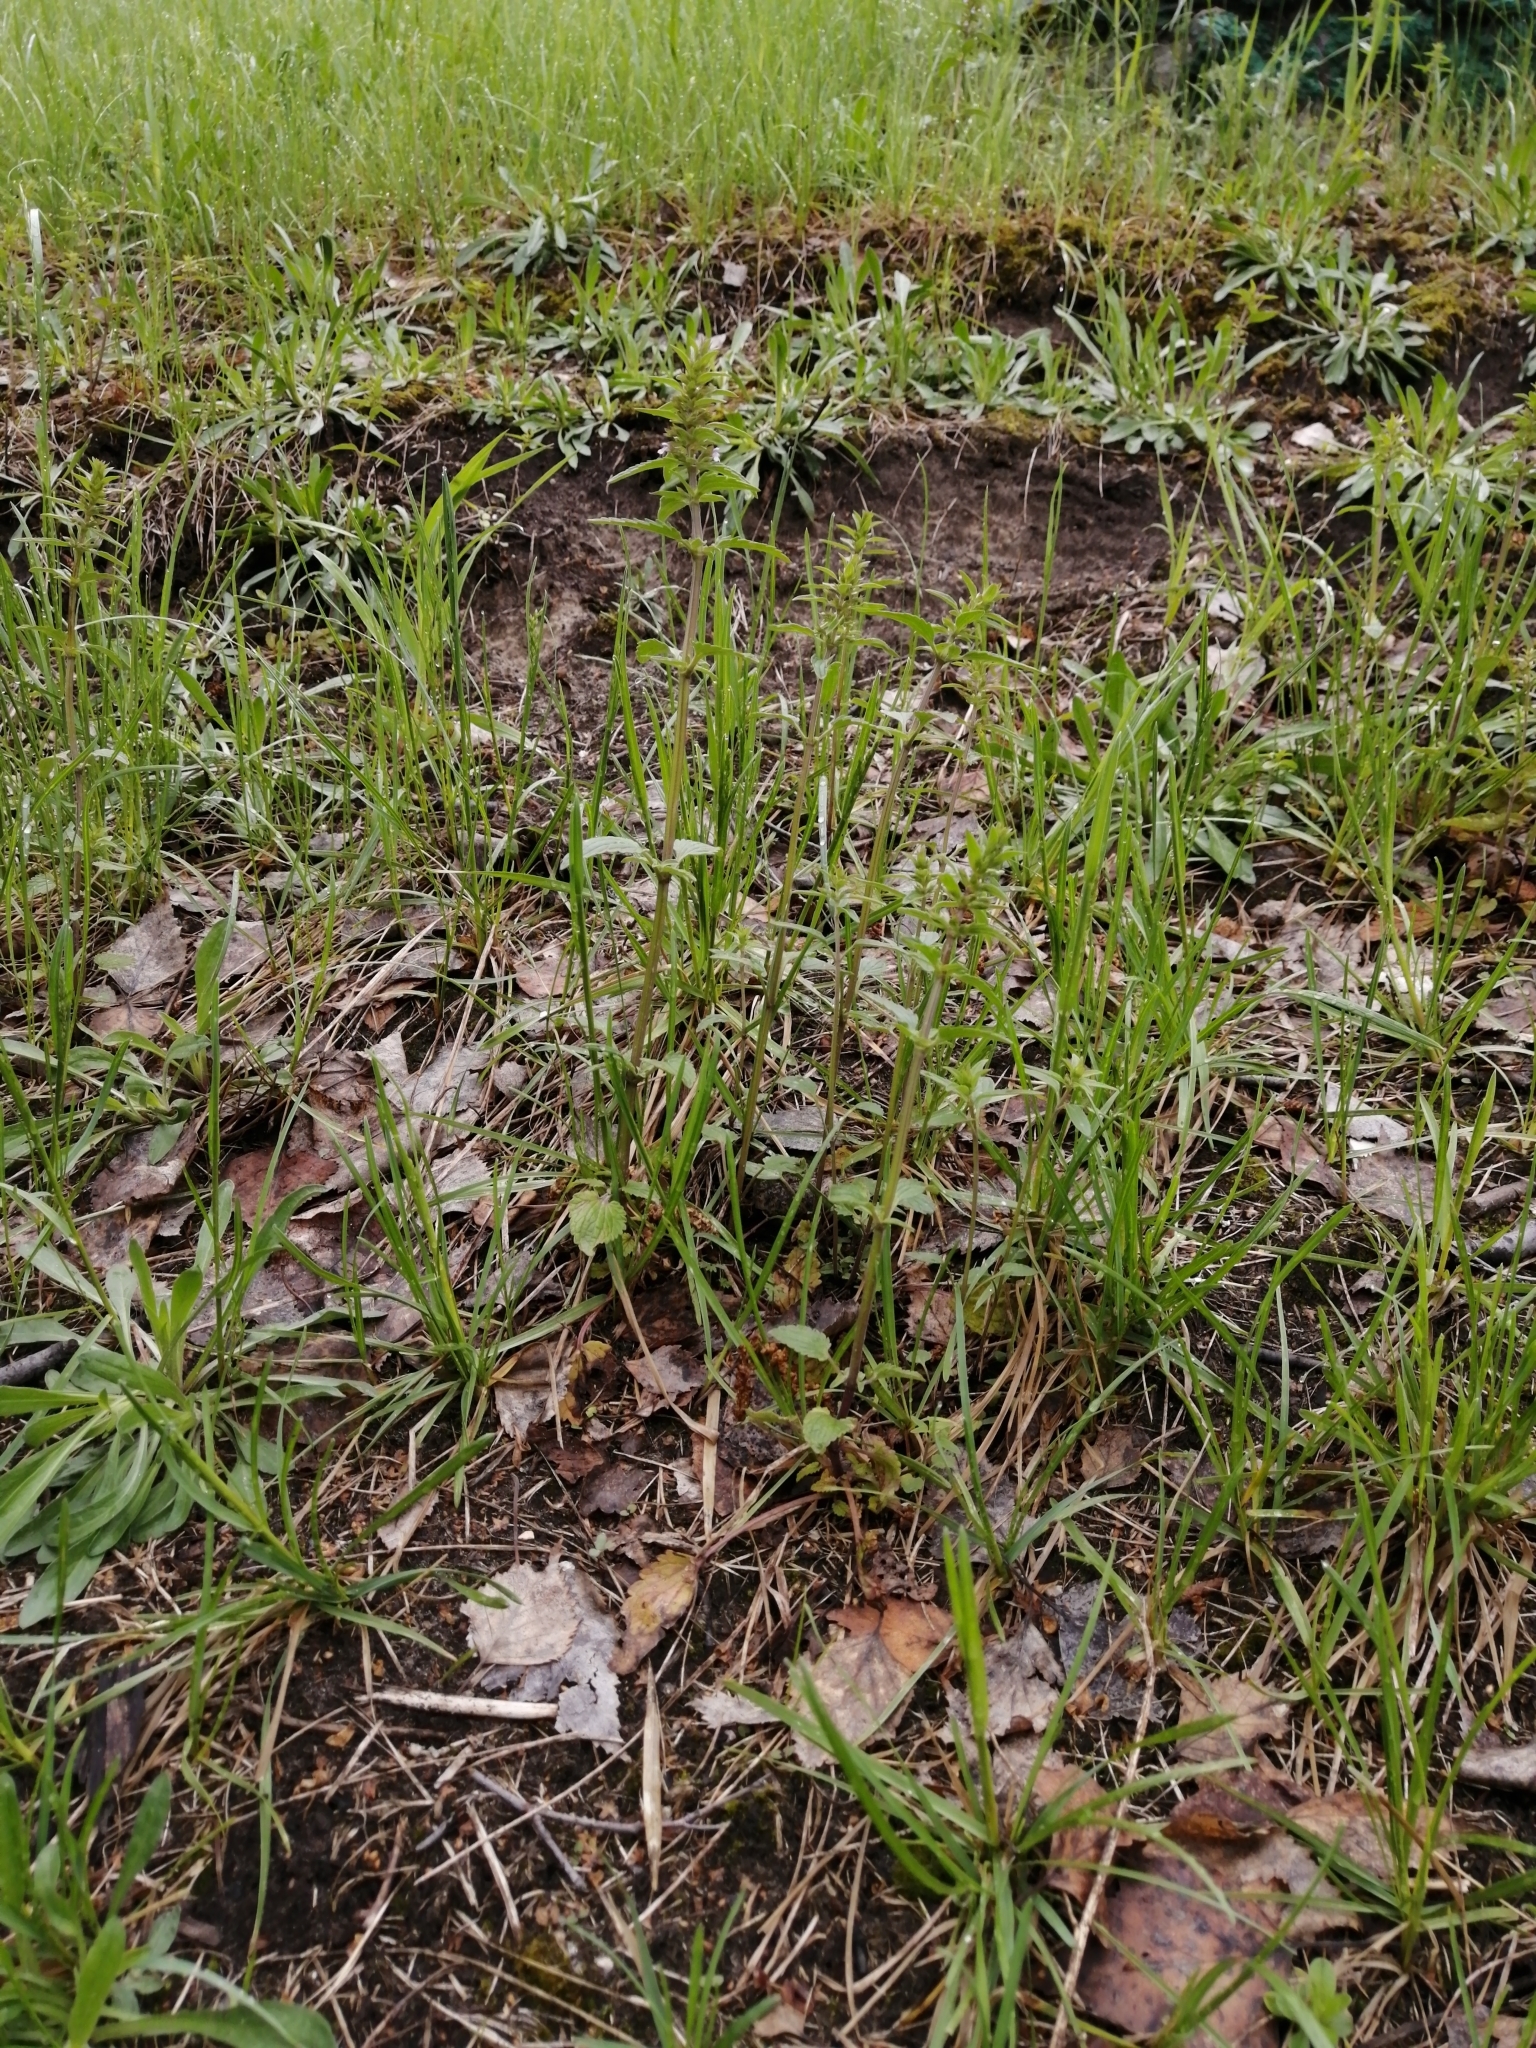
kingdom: Plantae
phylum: Tracheophyta
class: Magnoliopsida
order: Lamiales
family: Lamiaceae
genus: Dracocephalum
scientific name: Dracocephalum thymiflorum
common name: Thymeleaf dragonhead
